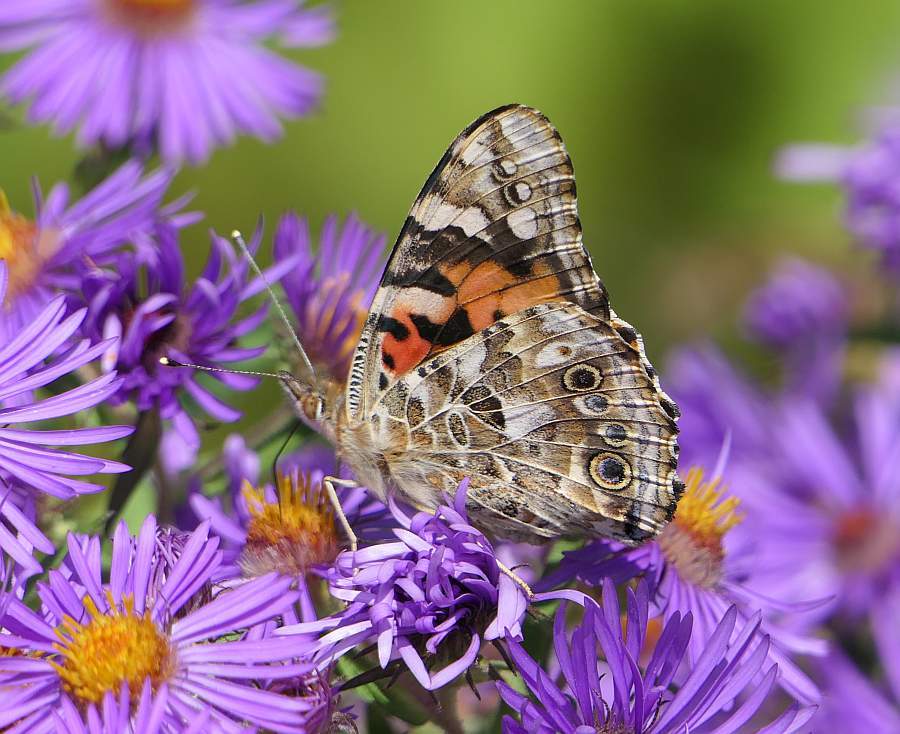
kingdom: Animalia
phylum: Arthropoda
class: Insecta
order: Lepidoptera
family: Nymphalidae
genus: Vanessa
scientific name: Vanessa cardui
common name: Painted lady
